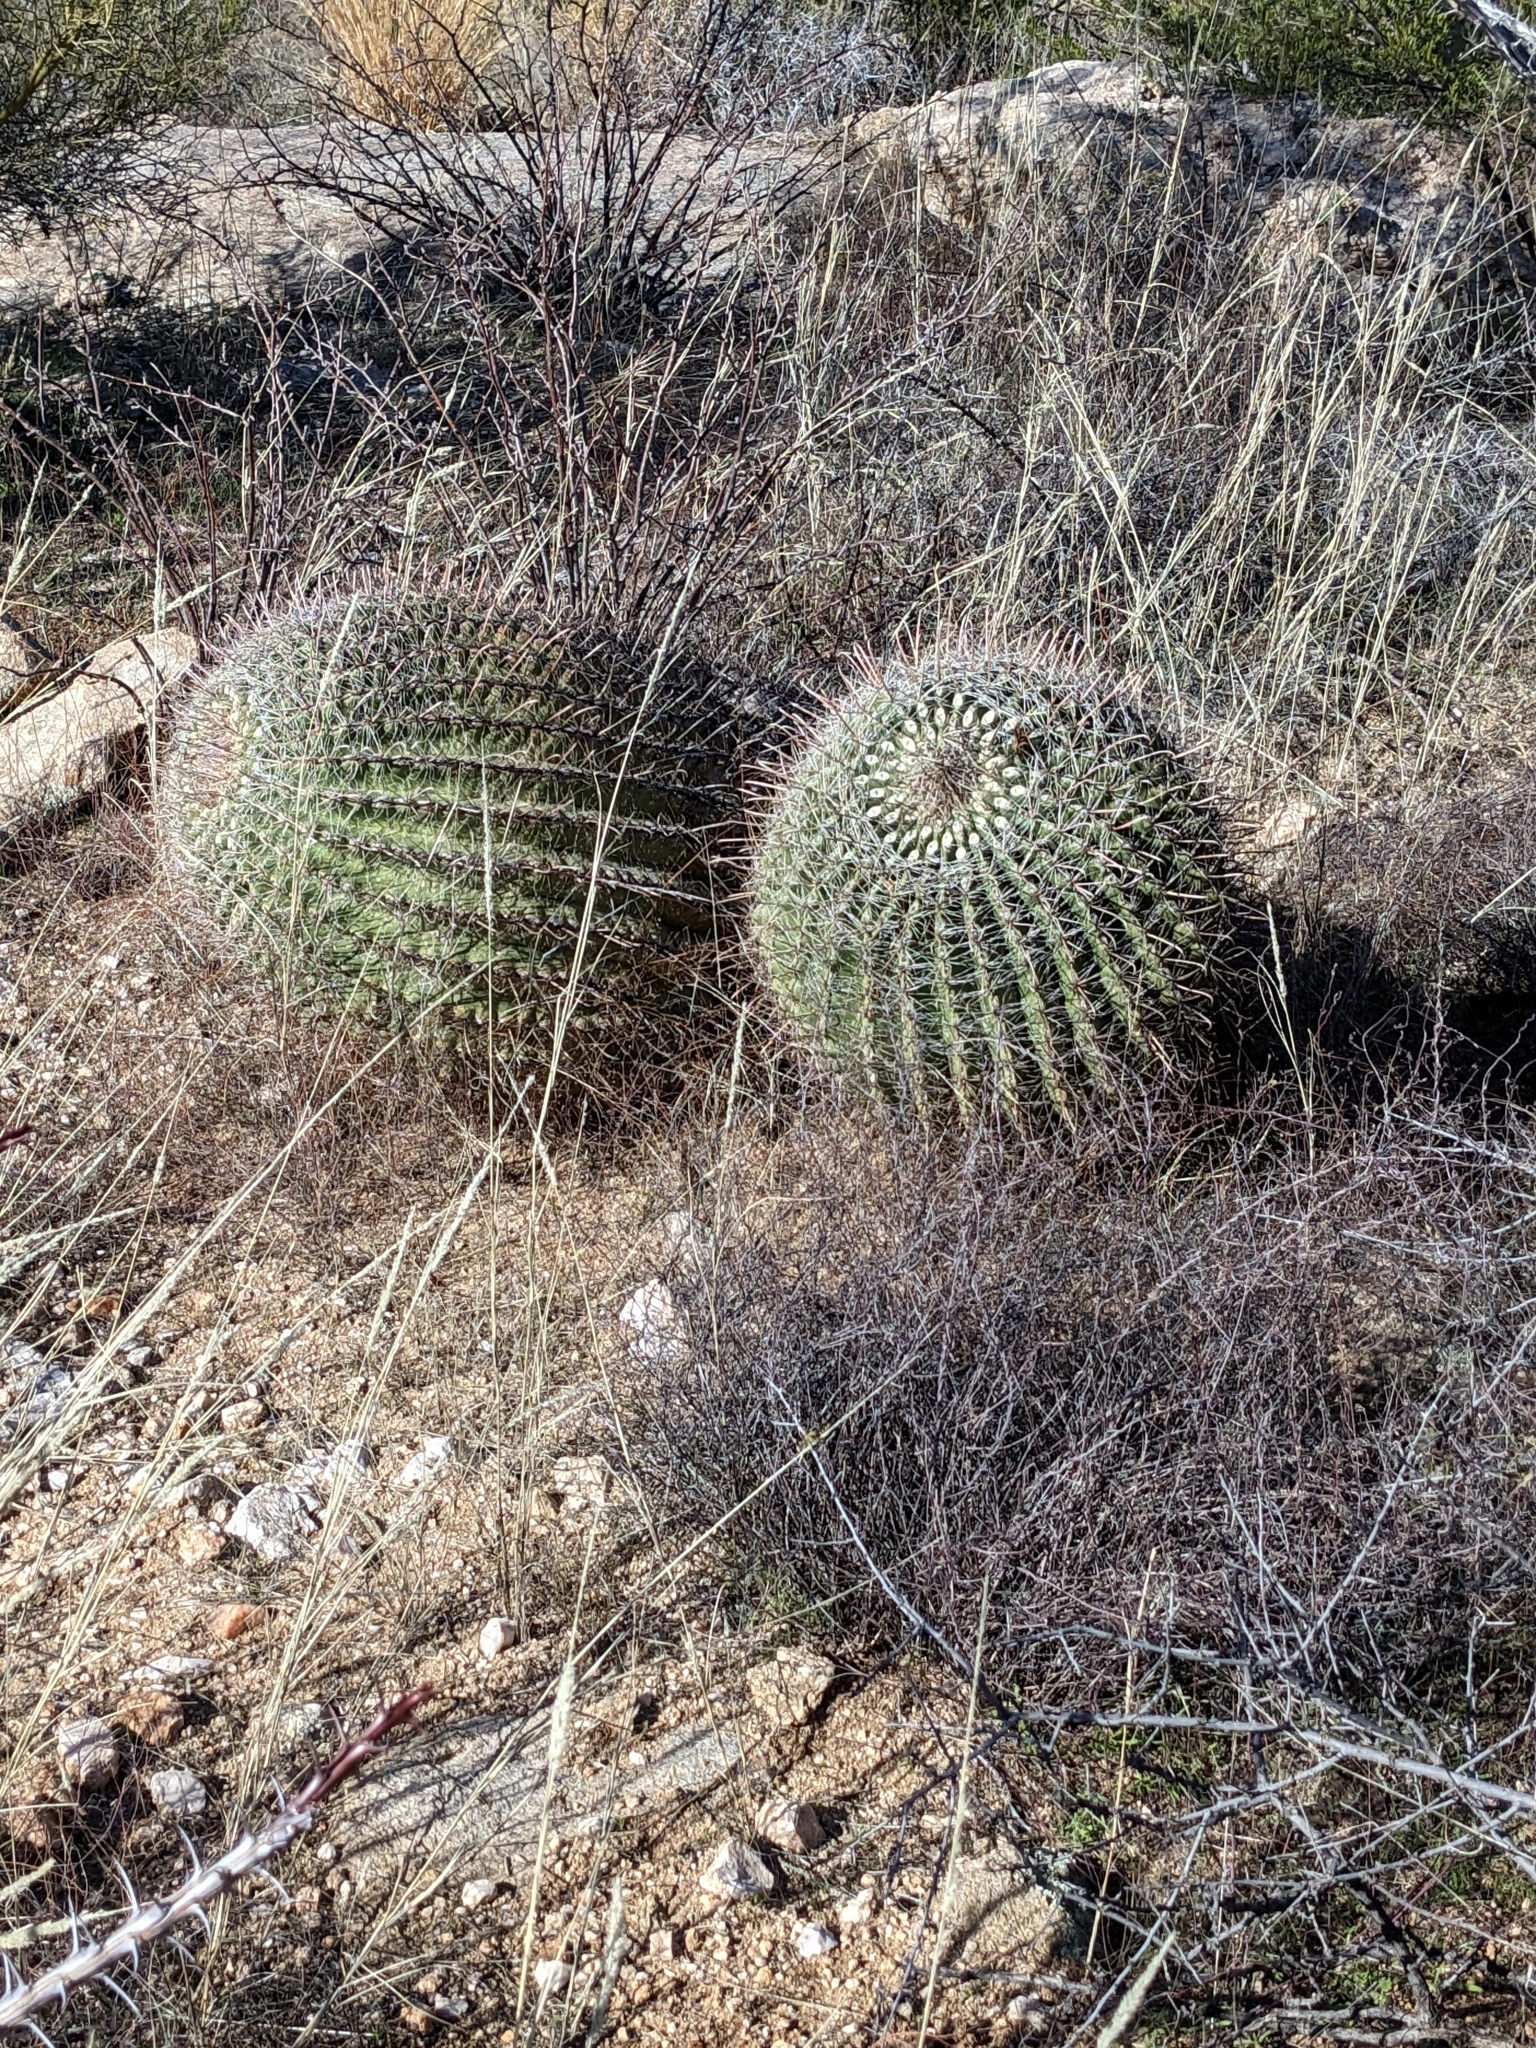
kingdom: Plantae
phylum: Tracheophyta
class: Magnoliopsida
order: Caryophyllales
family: Cactaceae
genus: Ferocactus
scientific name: Ferocactus wislizeni
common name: Candy barrel cactus
